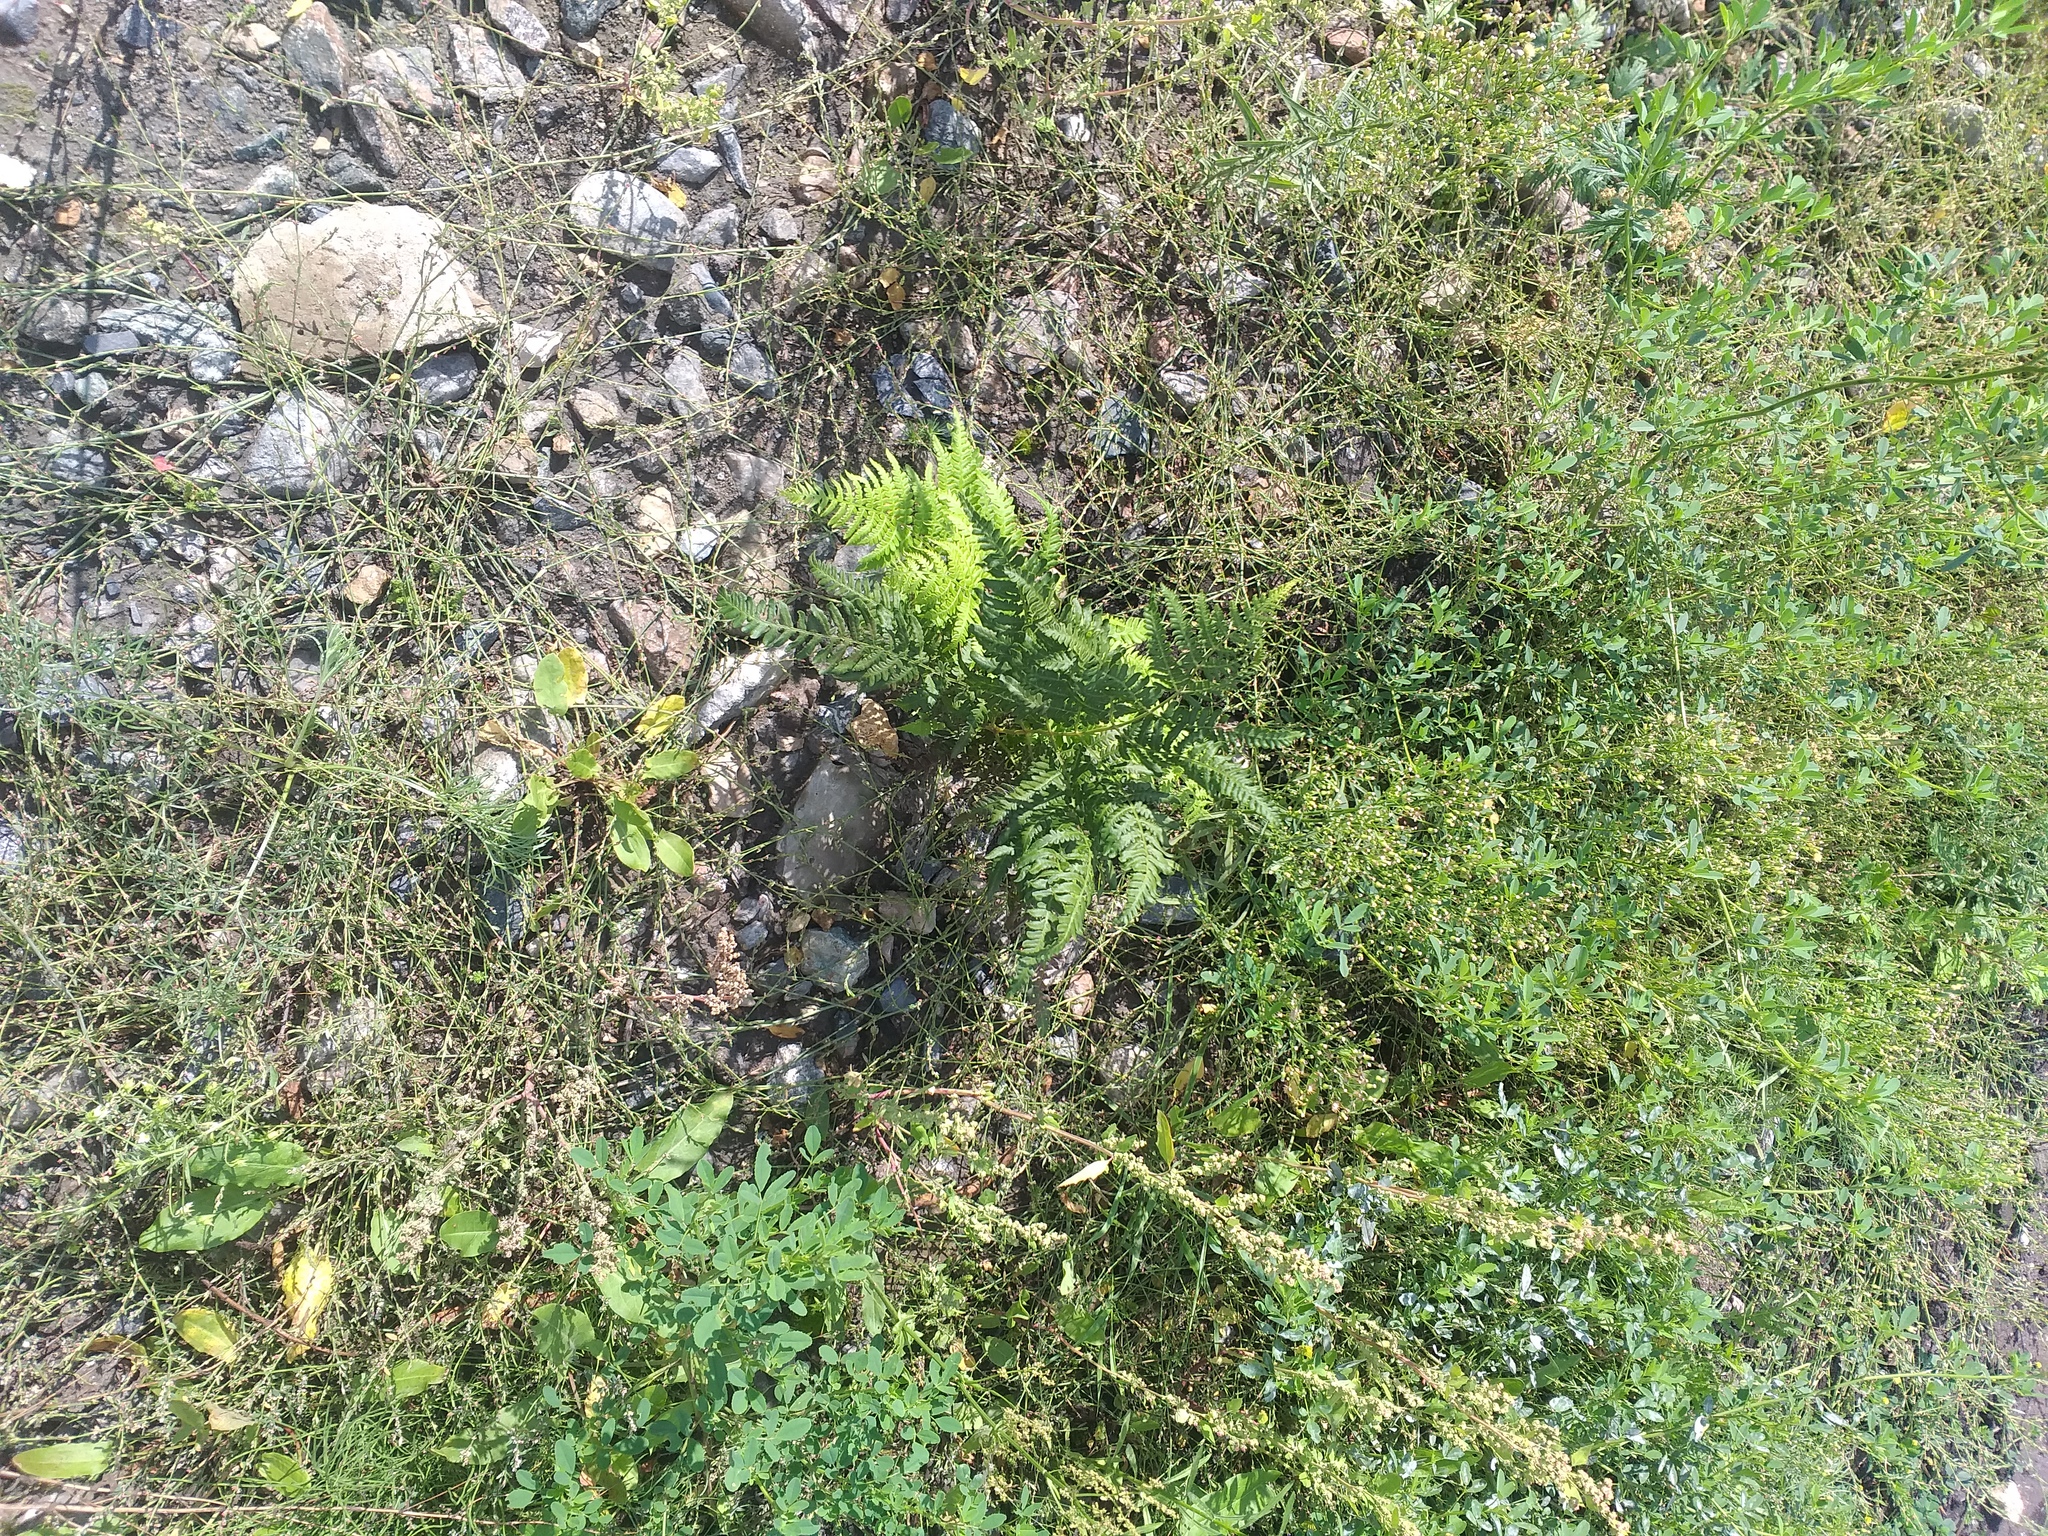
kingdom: Plantae
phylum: Tracheophyta
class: Polypodiopsida
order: Polypodiales
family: Dennstaedtiaceae
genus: Pteridium
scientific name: Pteridium aquilinum
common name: Bracken
